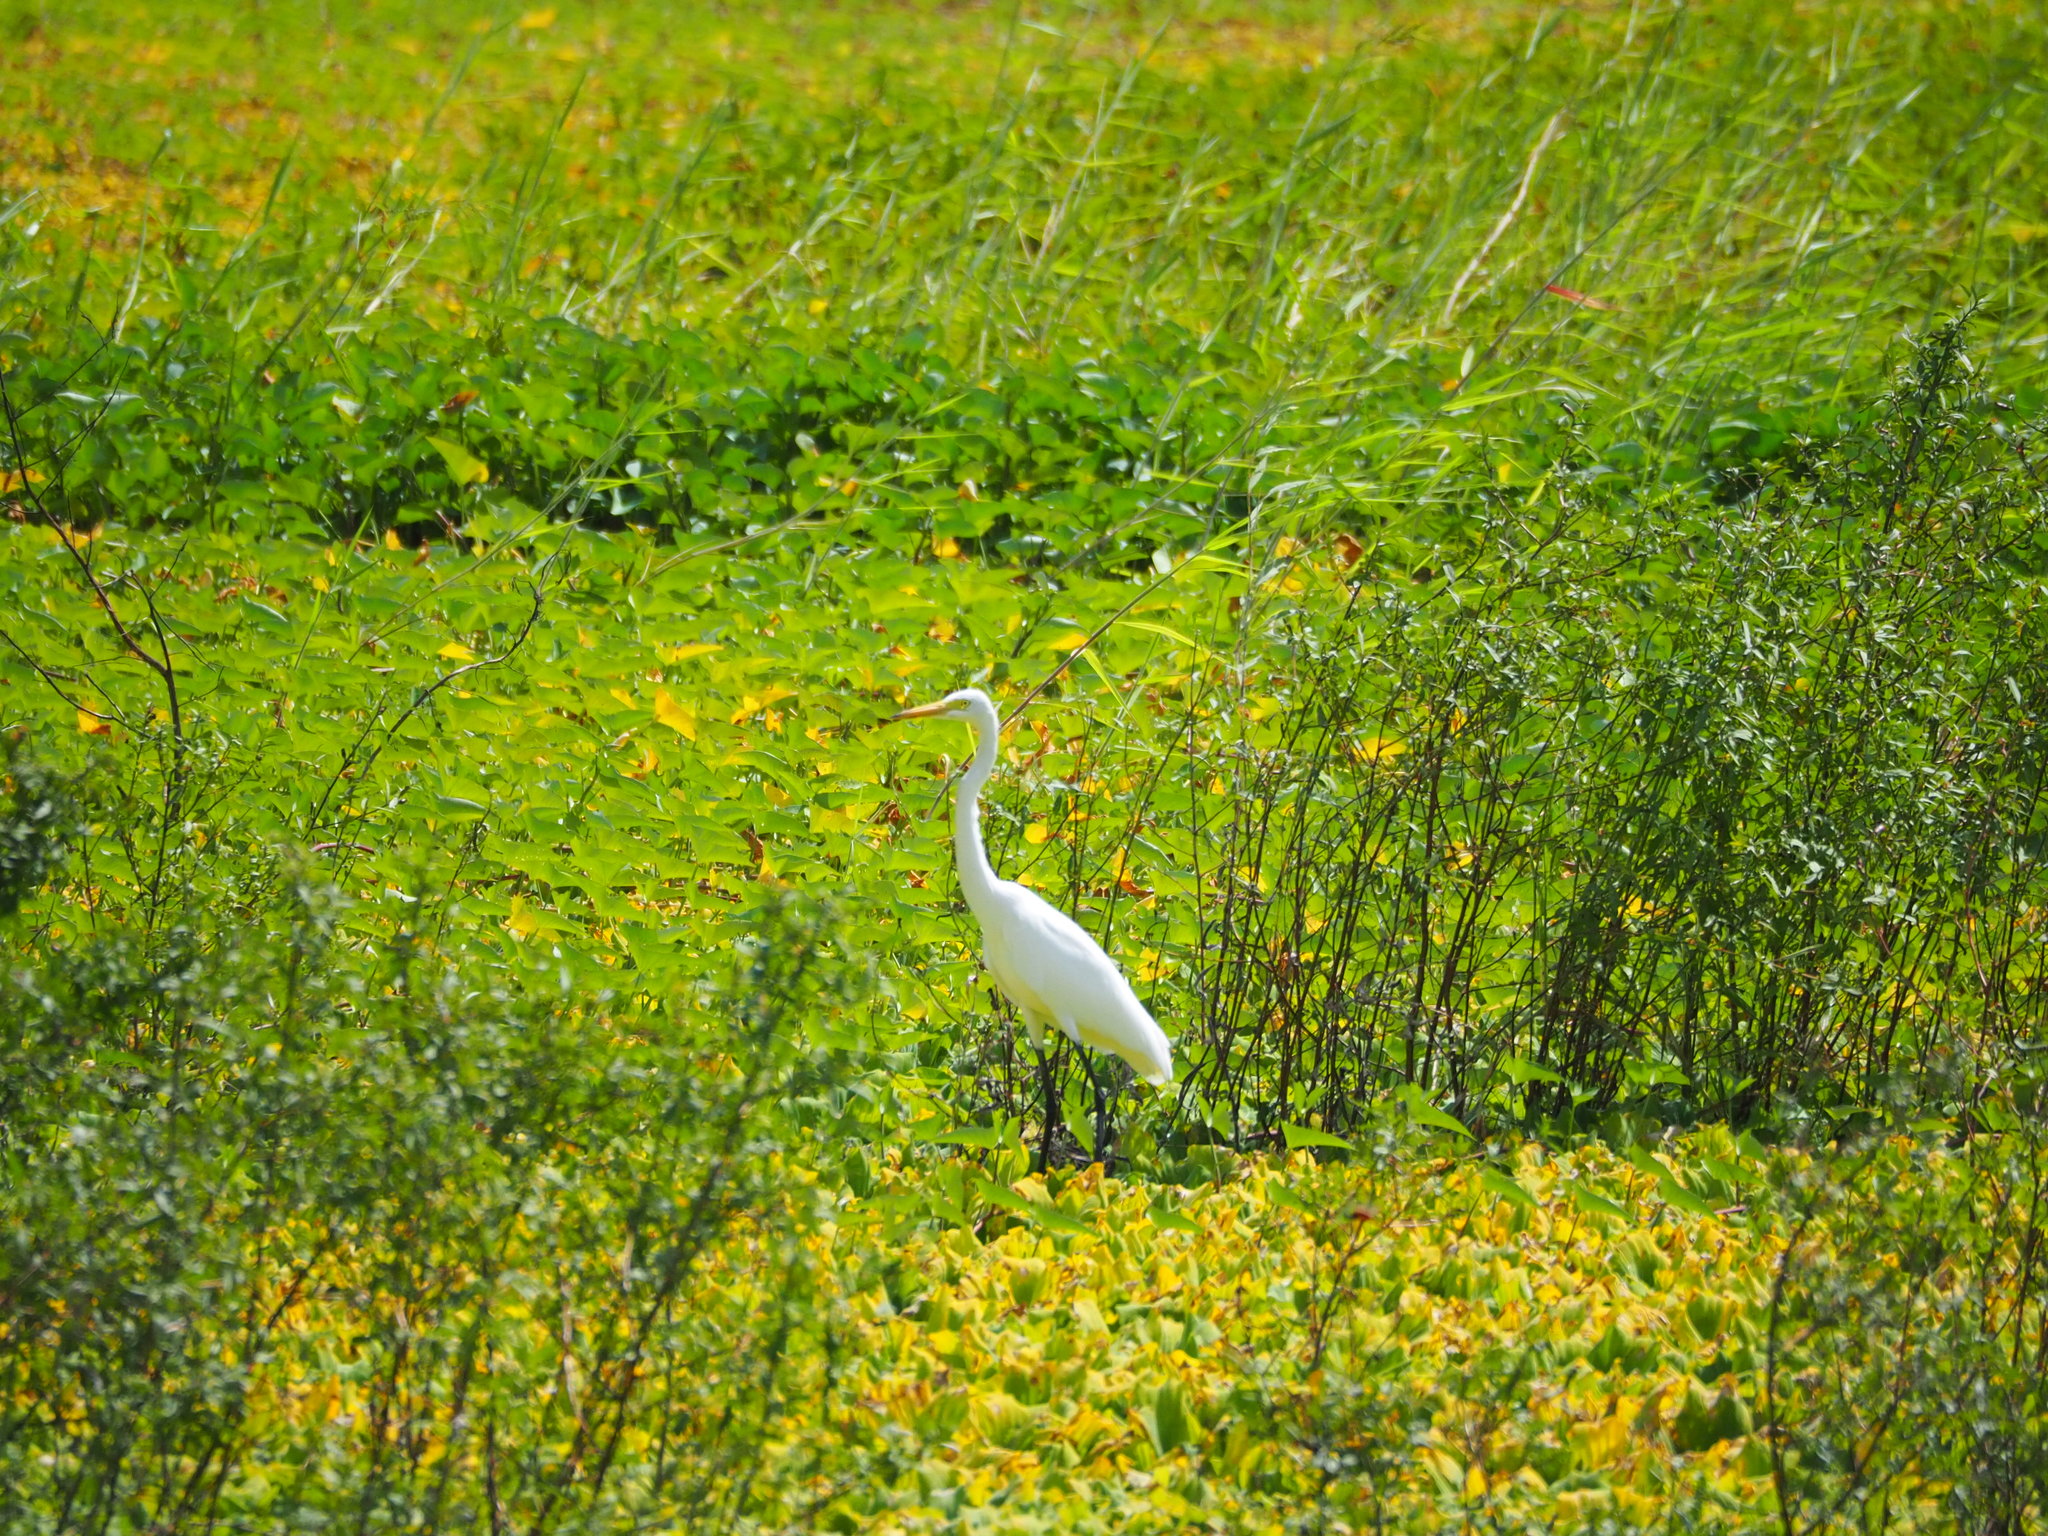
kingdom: Animalia
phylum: Chordata
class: Aves
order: Pelecaniformes
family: Ardeidae
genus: Egretta
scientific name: Egretta intermedia
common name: Intermediate egret
